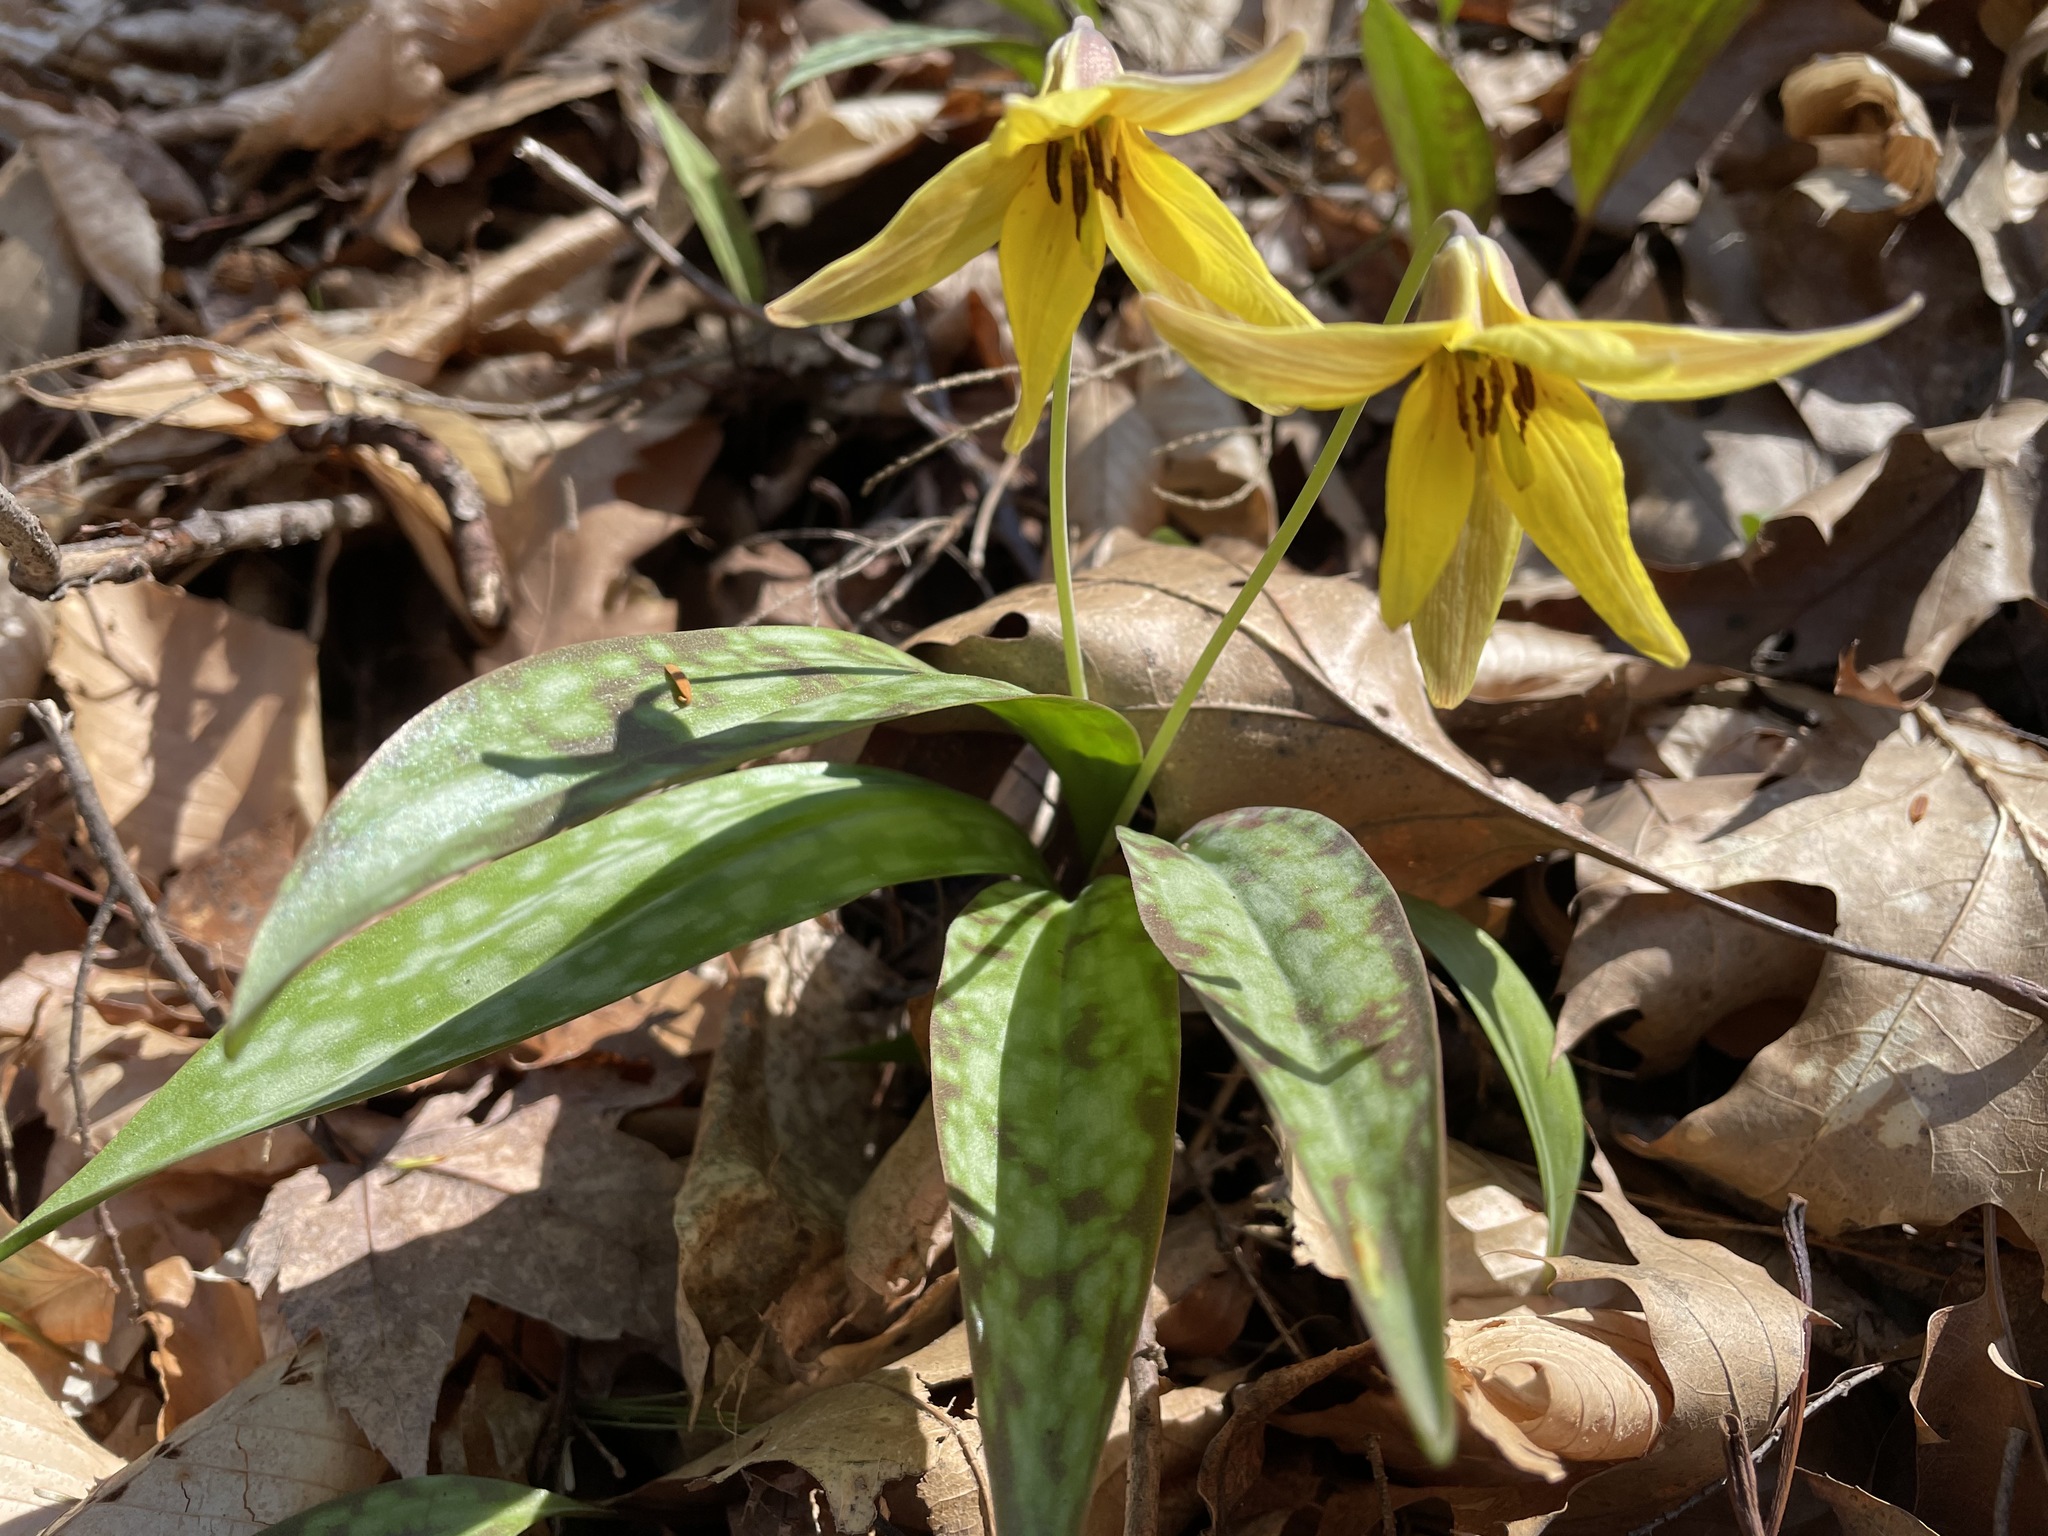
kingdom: Plantae
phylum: Tracheophyta
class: Liliopsida
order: Liliales
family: Liliaceae
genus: Erythronium
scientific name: Erythronium americanum
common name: Yellow adder's-tongue
